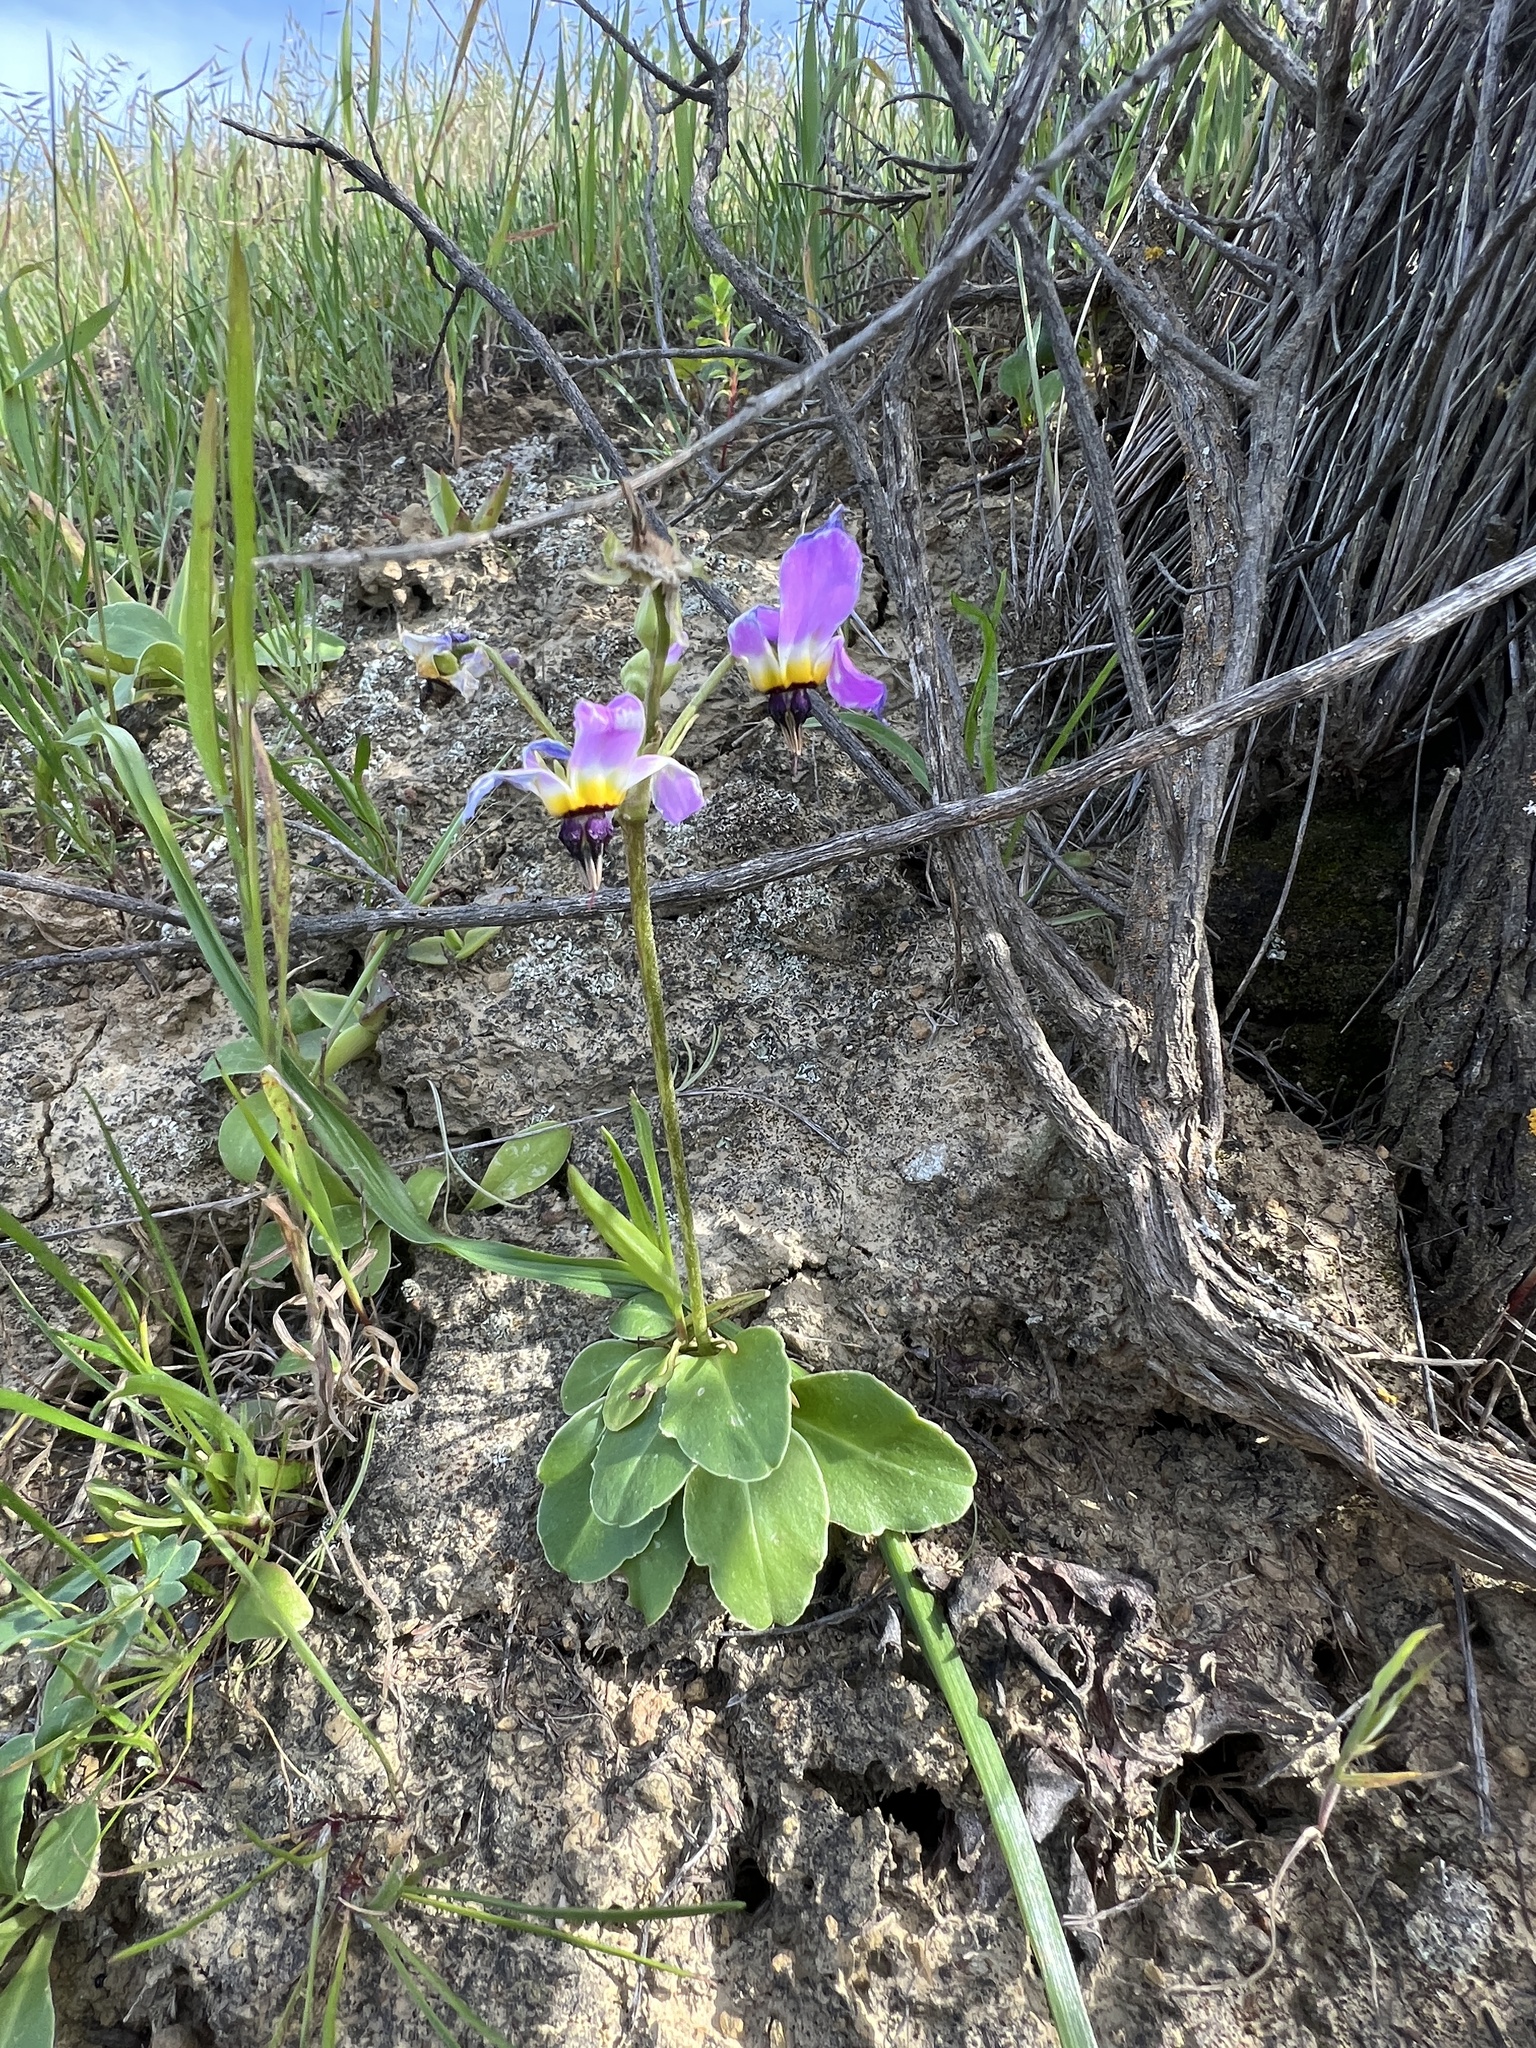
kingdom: Plantae
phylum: Tracheophyta
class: Magnoliopsida
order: Ericales
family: Primulaceae
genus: Dodecatheon
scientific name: Dodecatheon clevelandii
